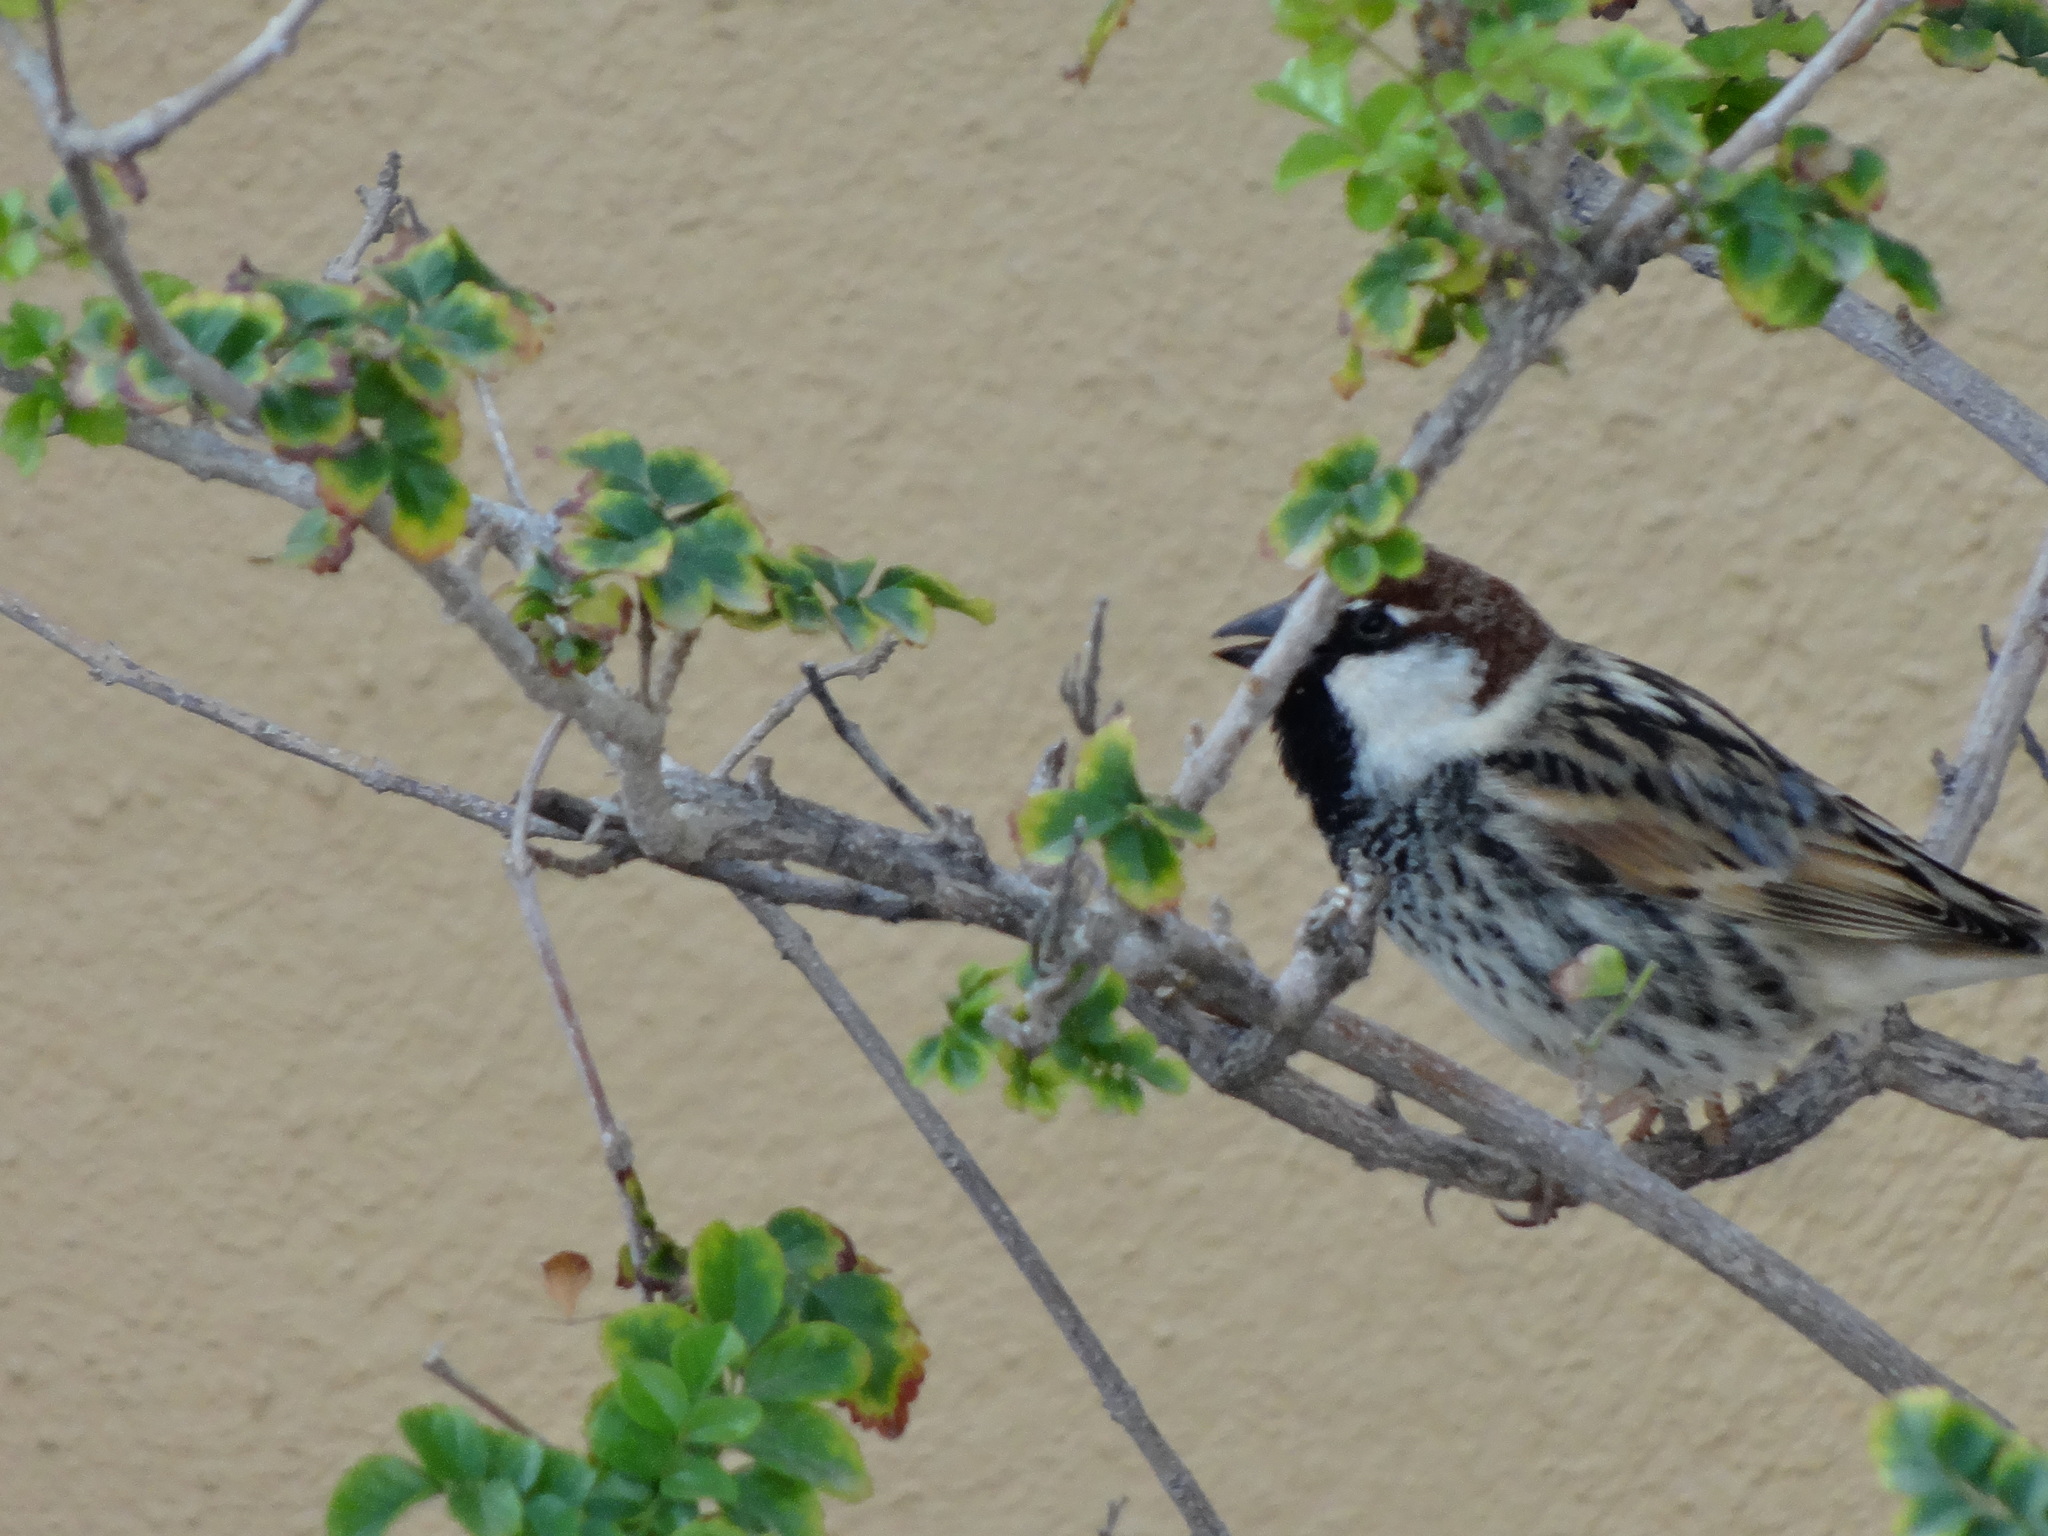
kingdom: Animalia
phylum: Chordata
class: Aves
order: Passeriformes
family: Passeridae
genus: Passer
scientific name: Passer hispaniolensis
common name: Spanish sparrow
